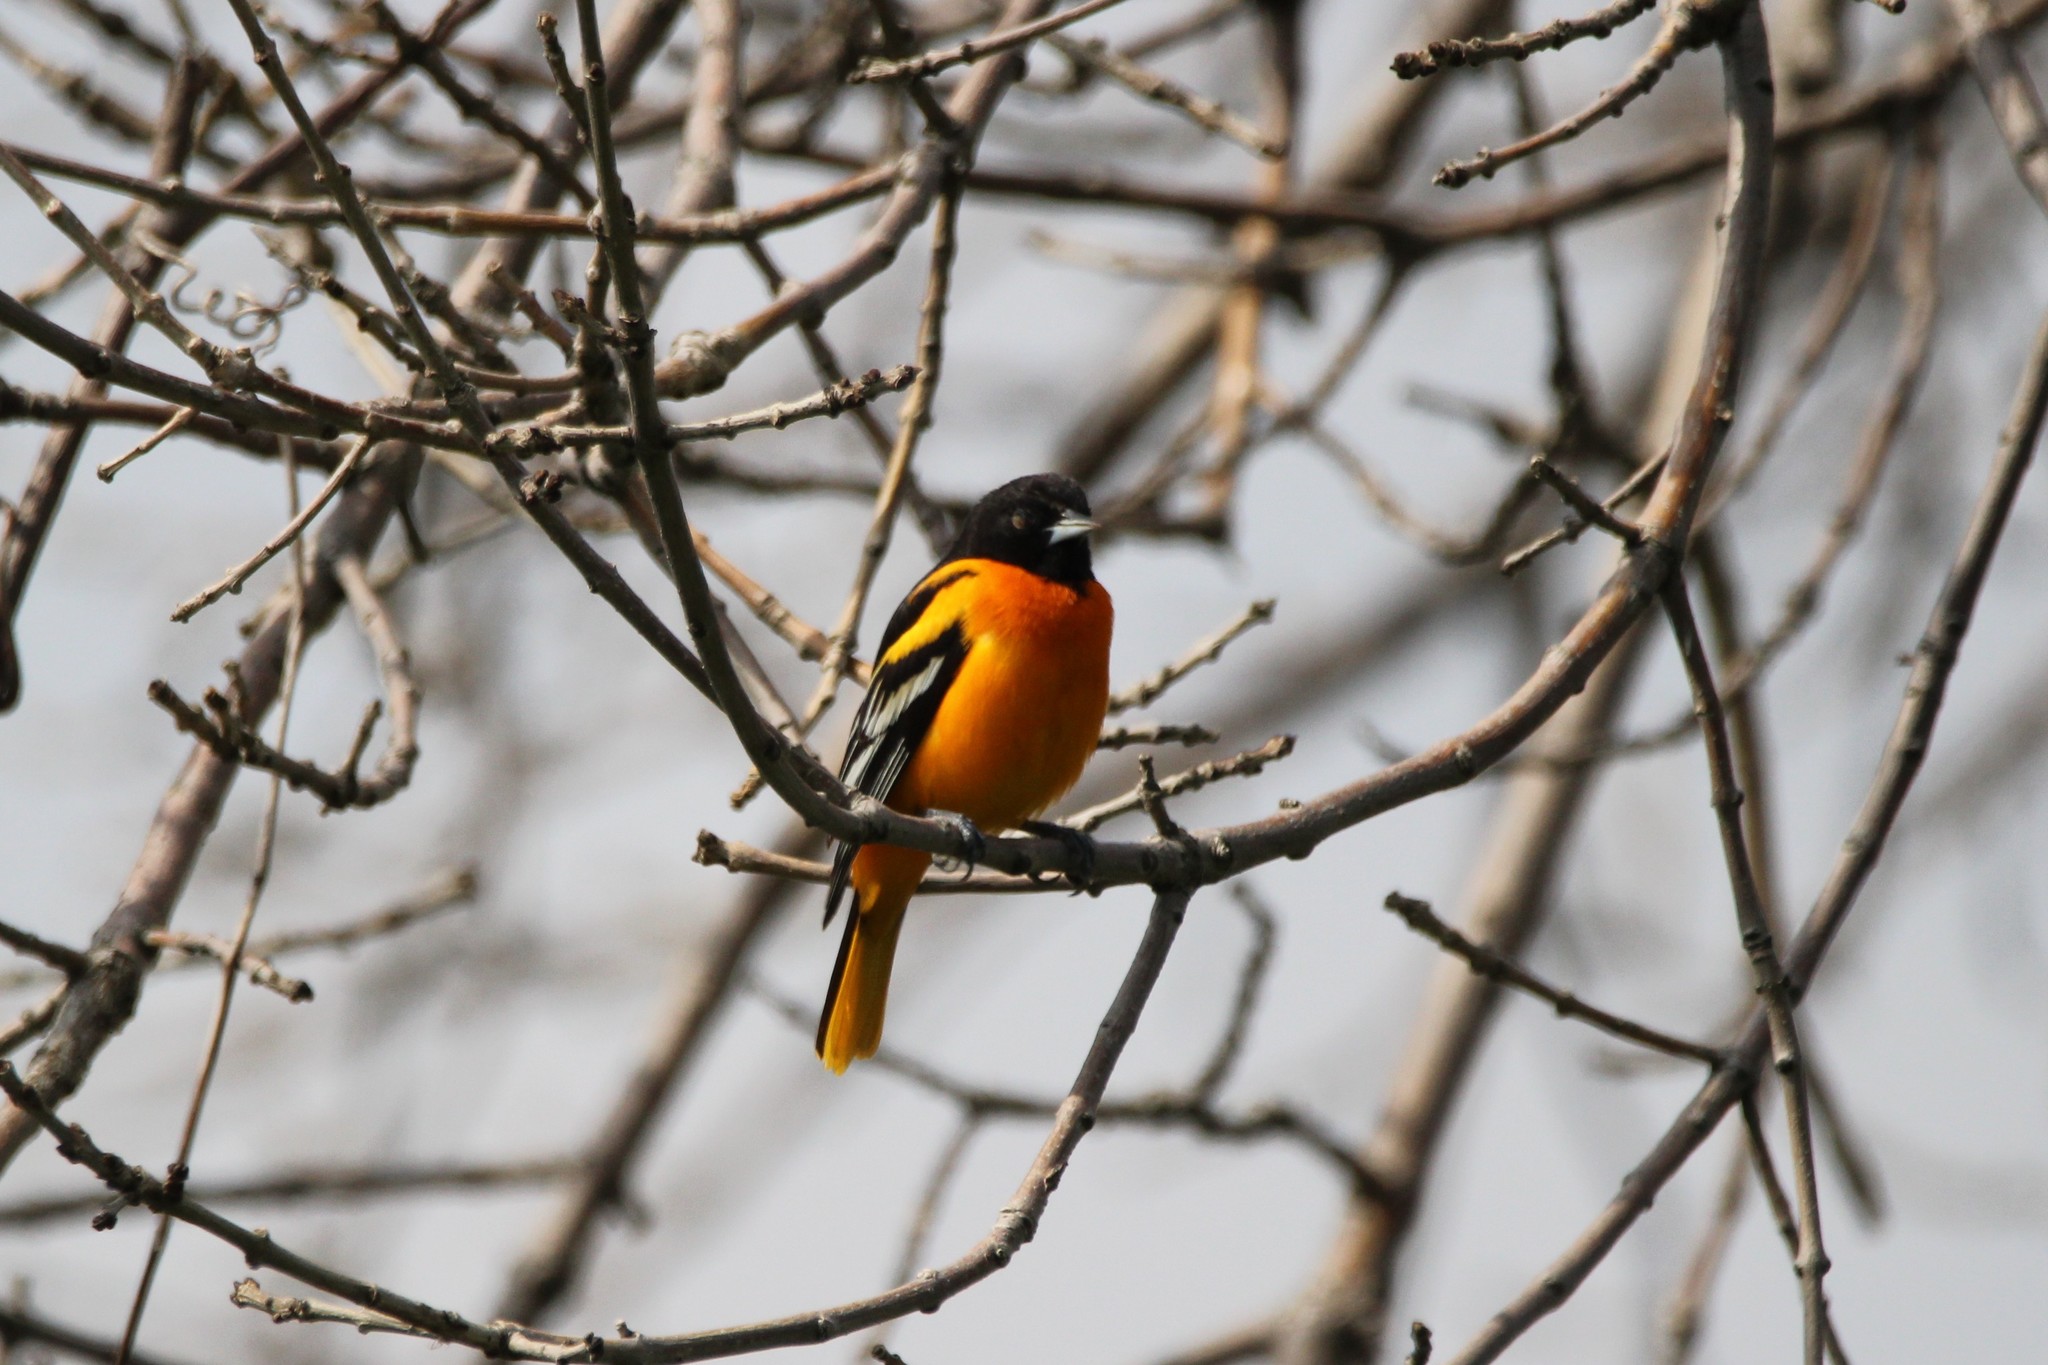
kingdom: Animalia
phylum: Chordata
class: Aves
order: Passeriformes
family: Icteridae
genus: Icterus
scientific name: Icterus galbula
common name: Baltimore oriole
